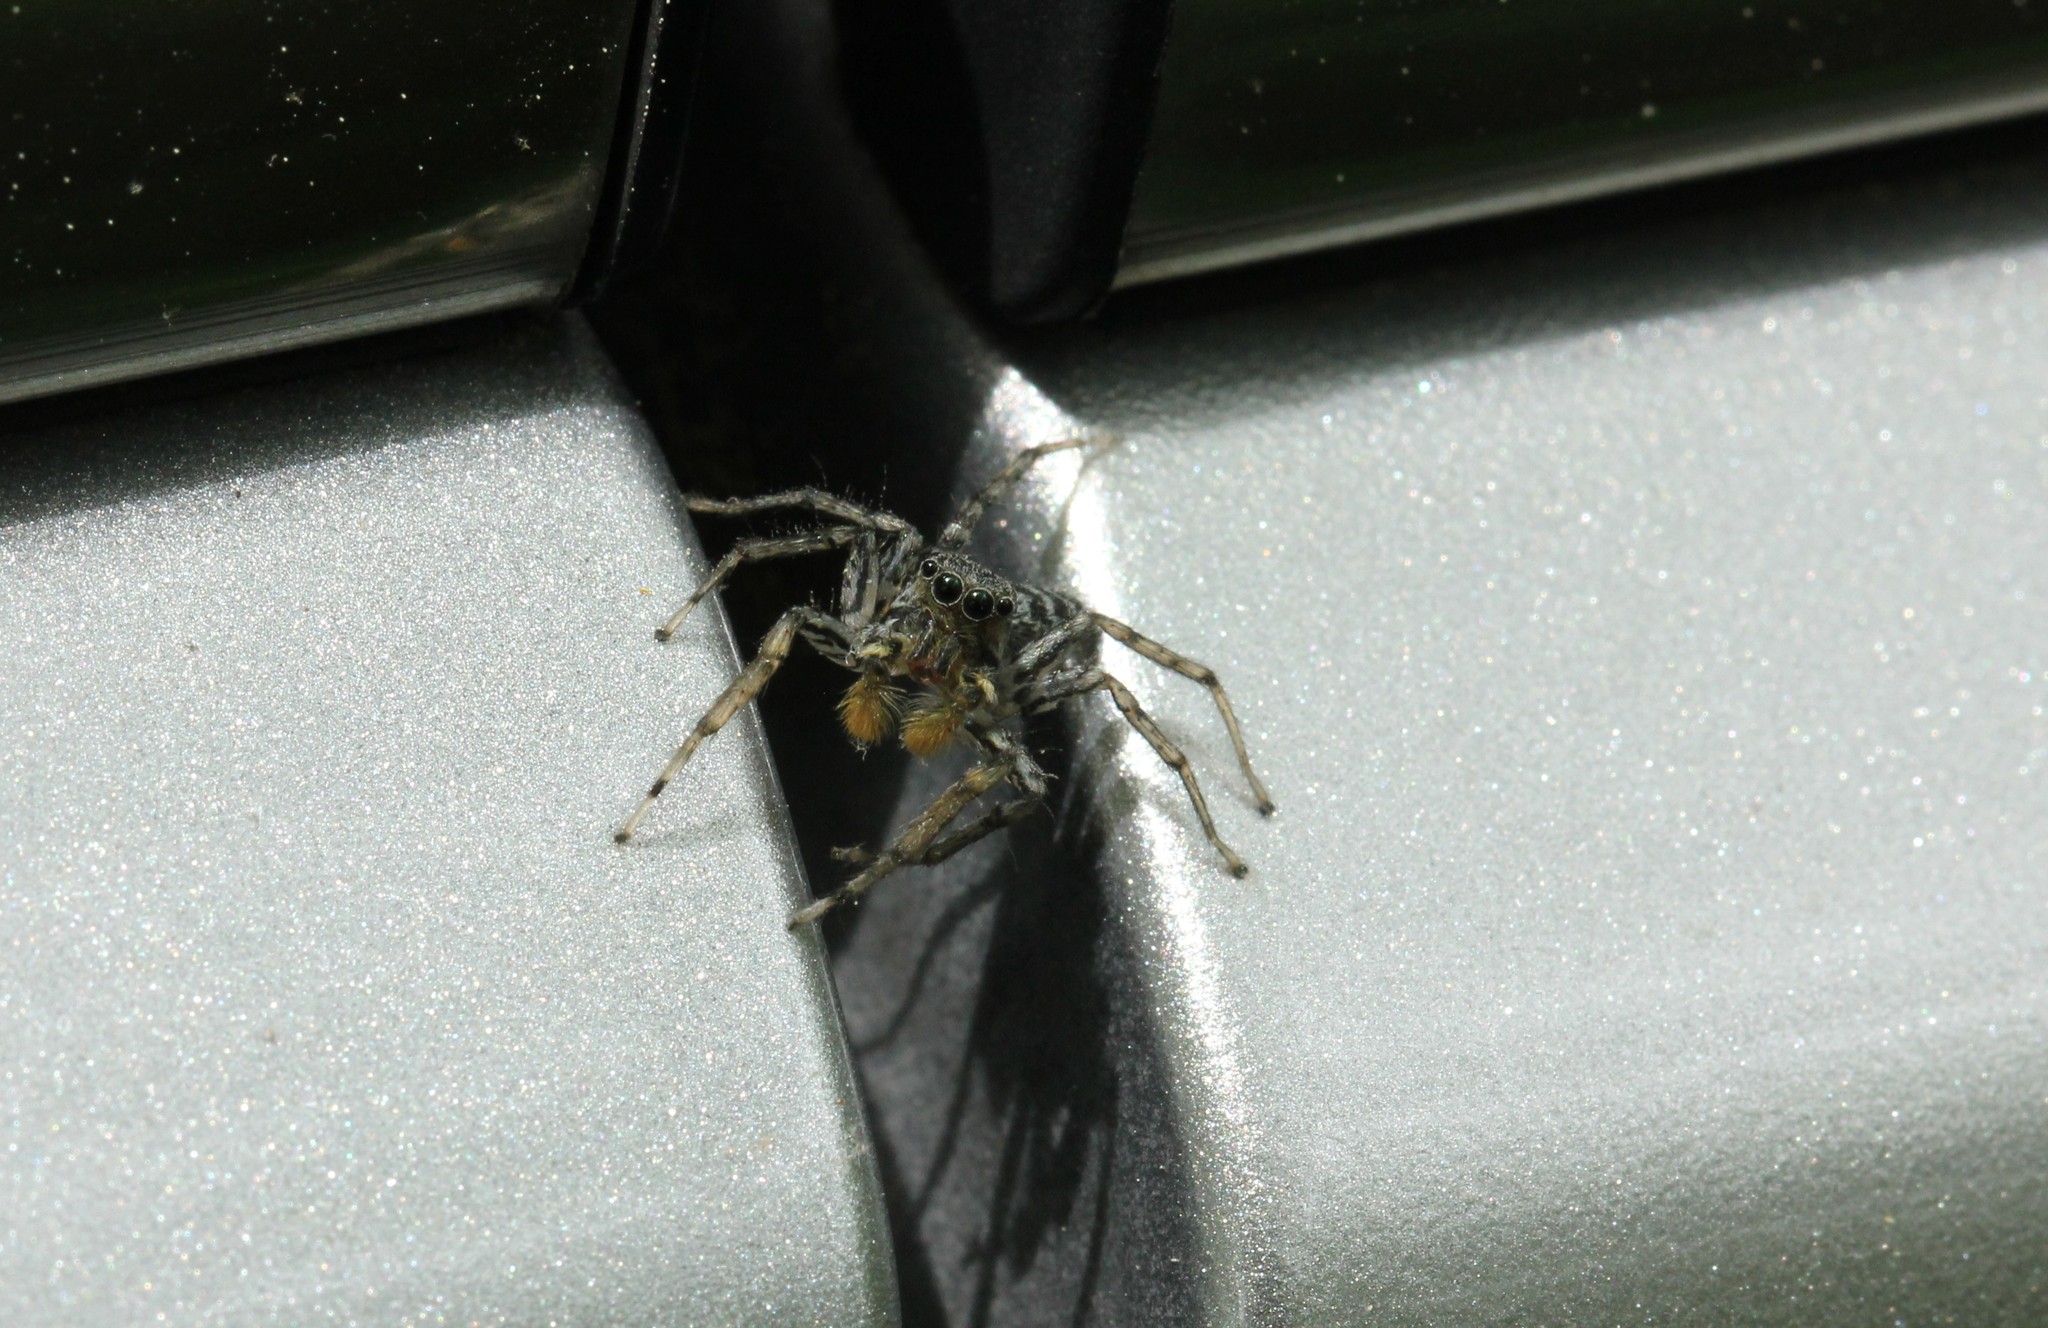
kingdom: Animalia
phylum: Arthropoda
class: Arachnida
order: Araneae
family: Salticidae
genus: Maevia
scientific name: Maevia inclemens
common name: Dimorphic jumper
